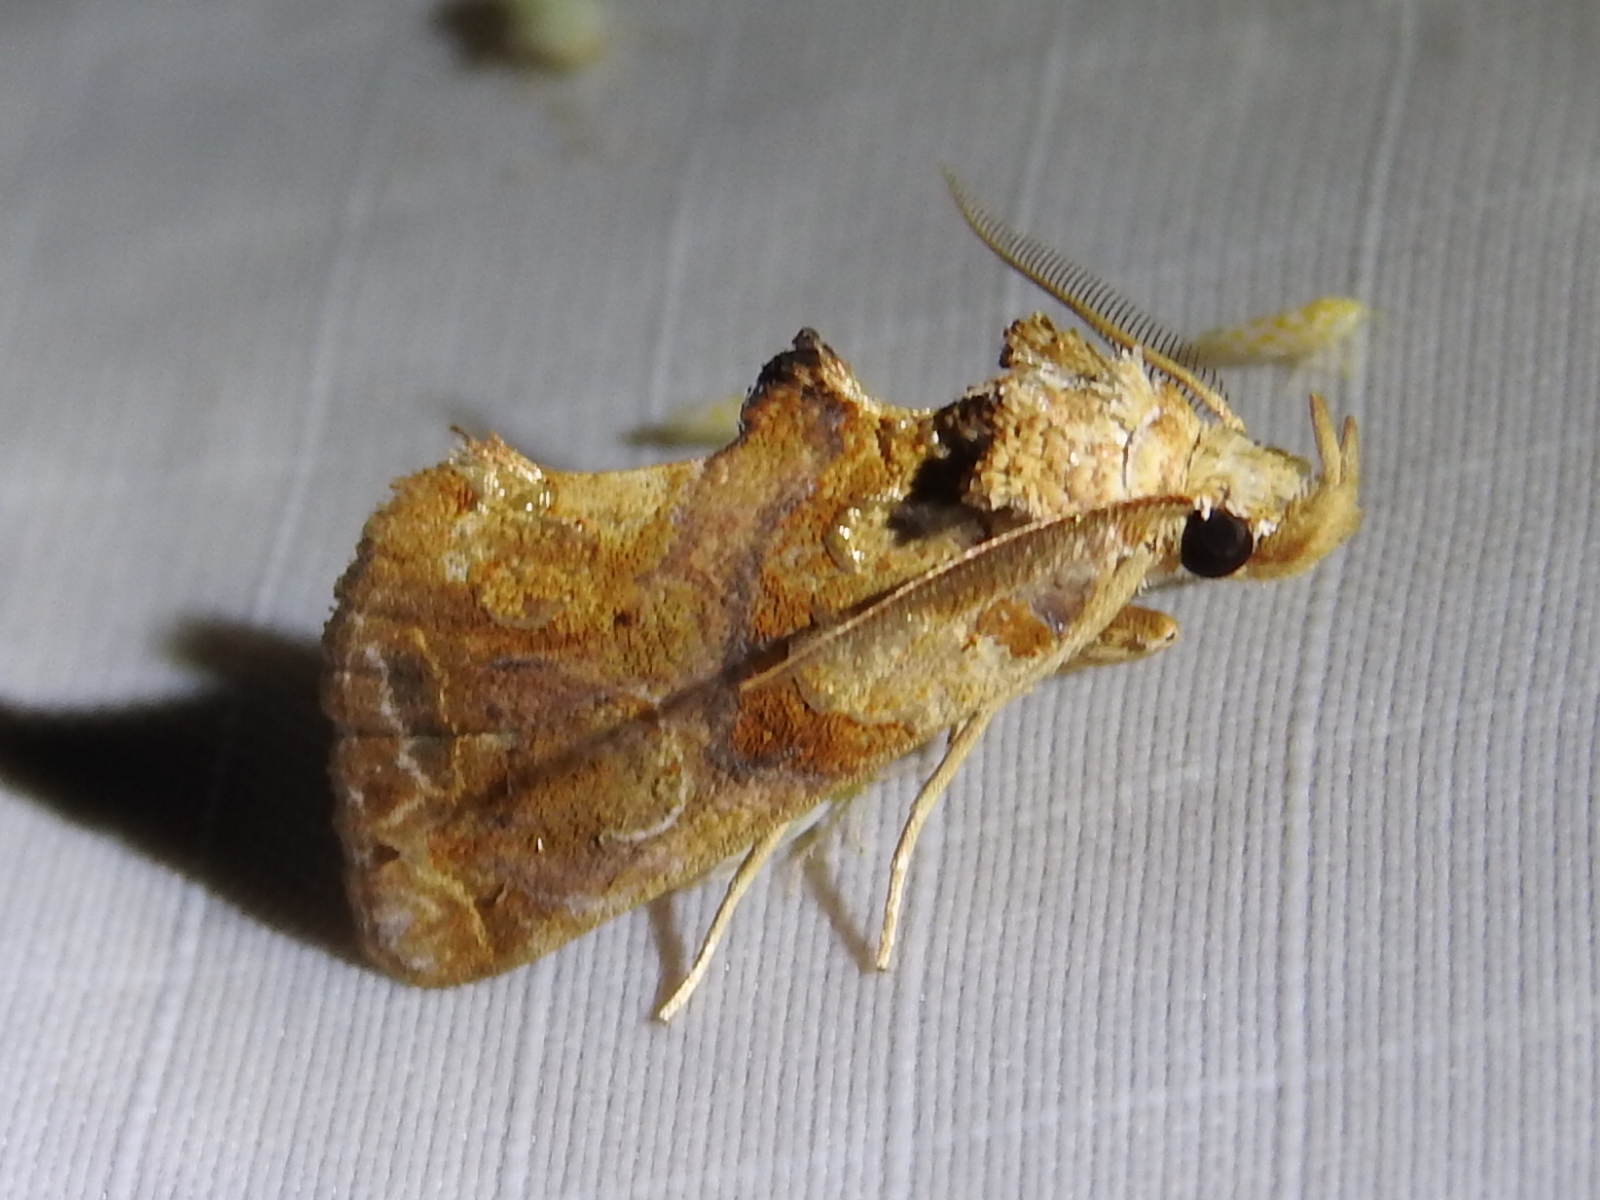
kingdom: Animalia
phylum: Arthropoda
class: Insecta
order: Lepidoptera
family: Erebidae
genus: Plusiodonta
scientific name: Plusiodonta compressipalpis
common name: Moonseed moth
